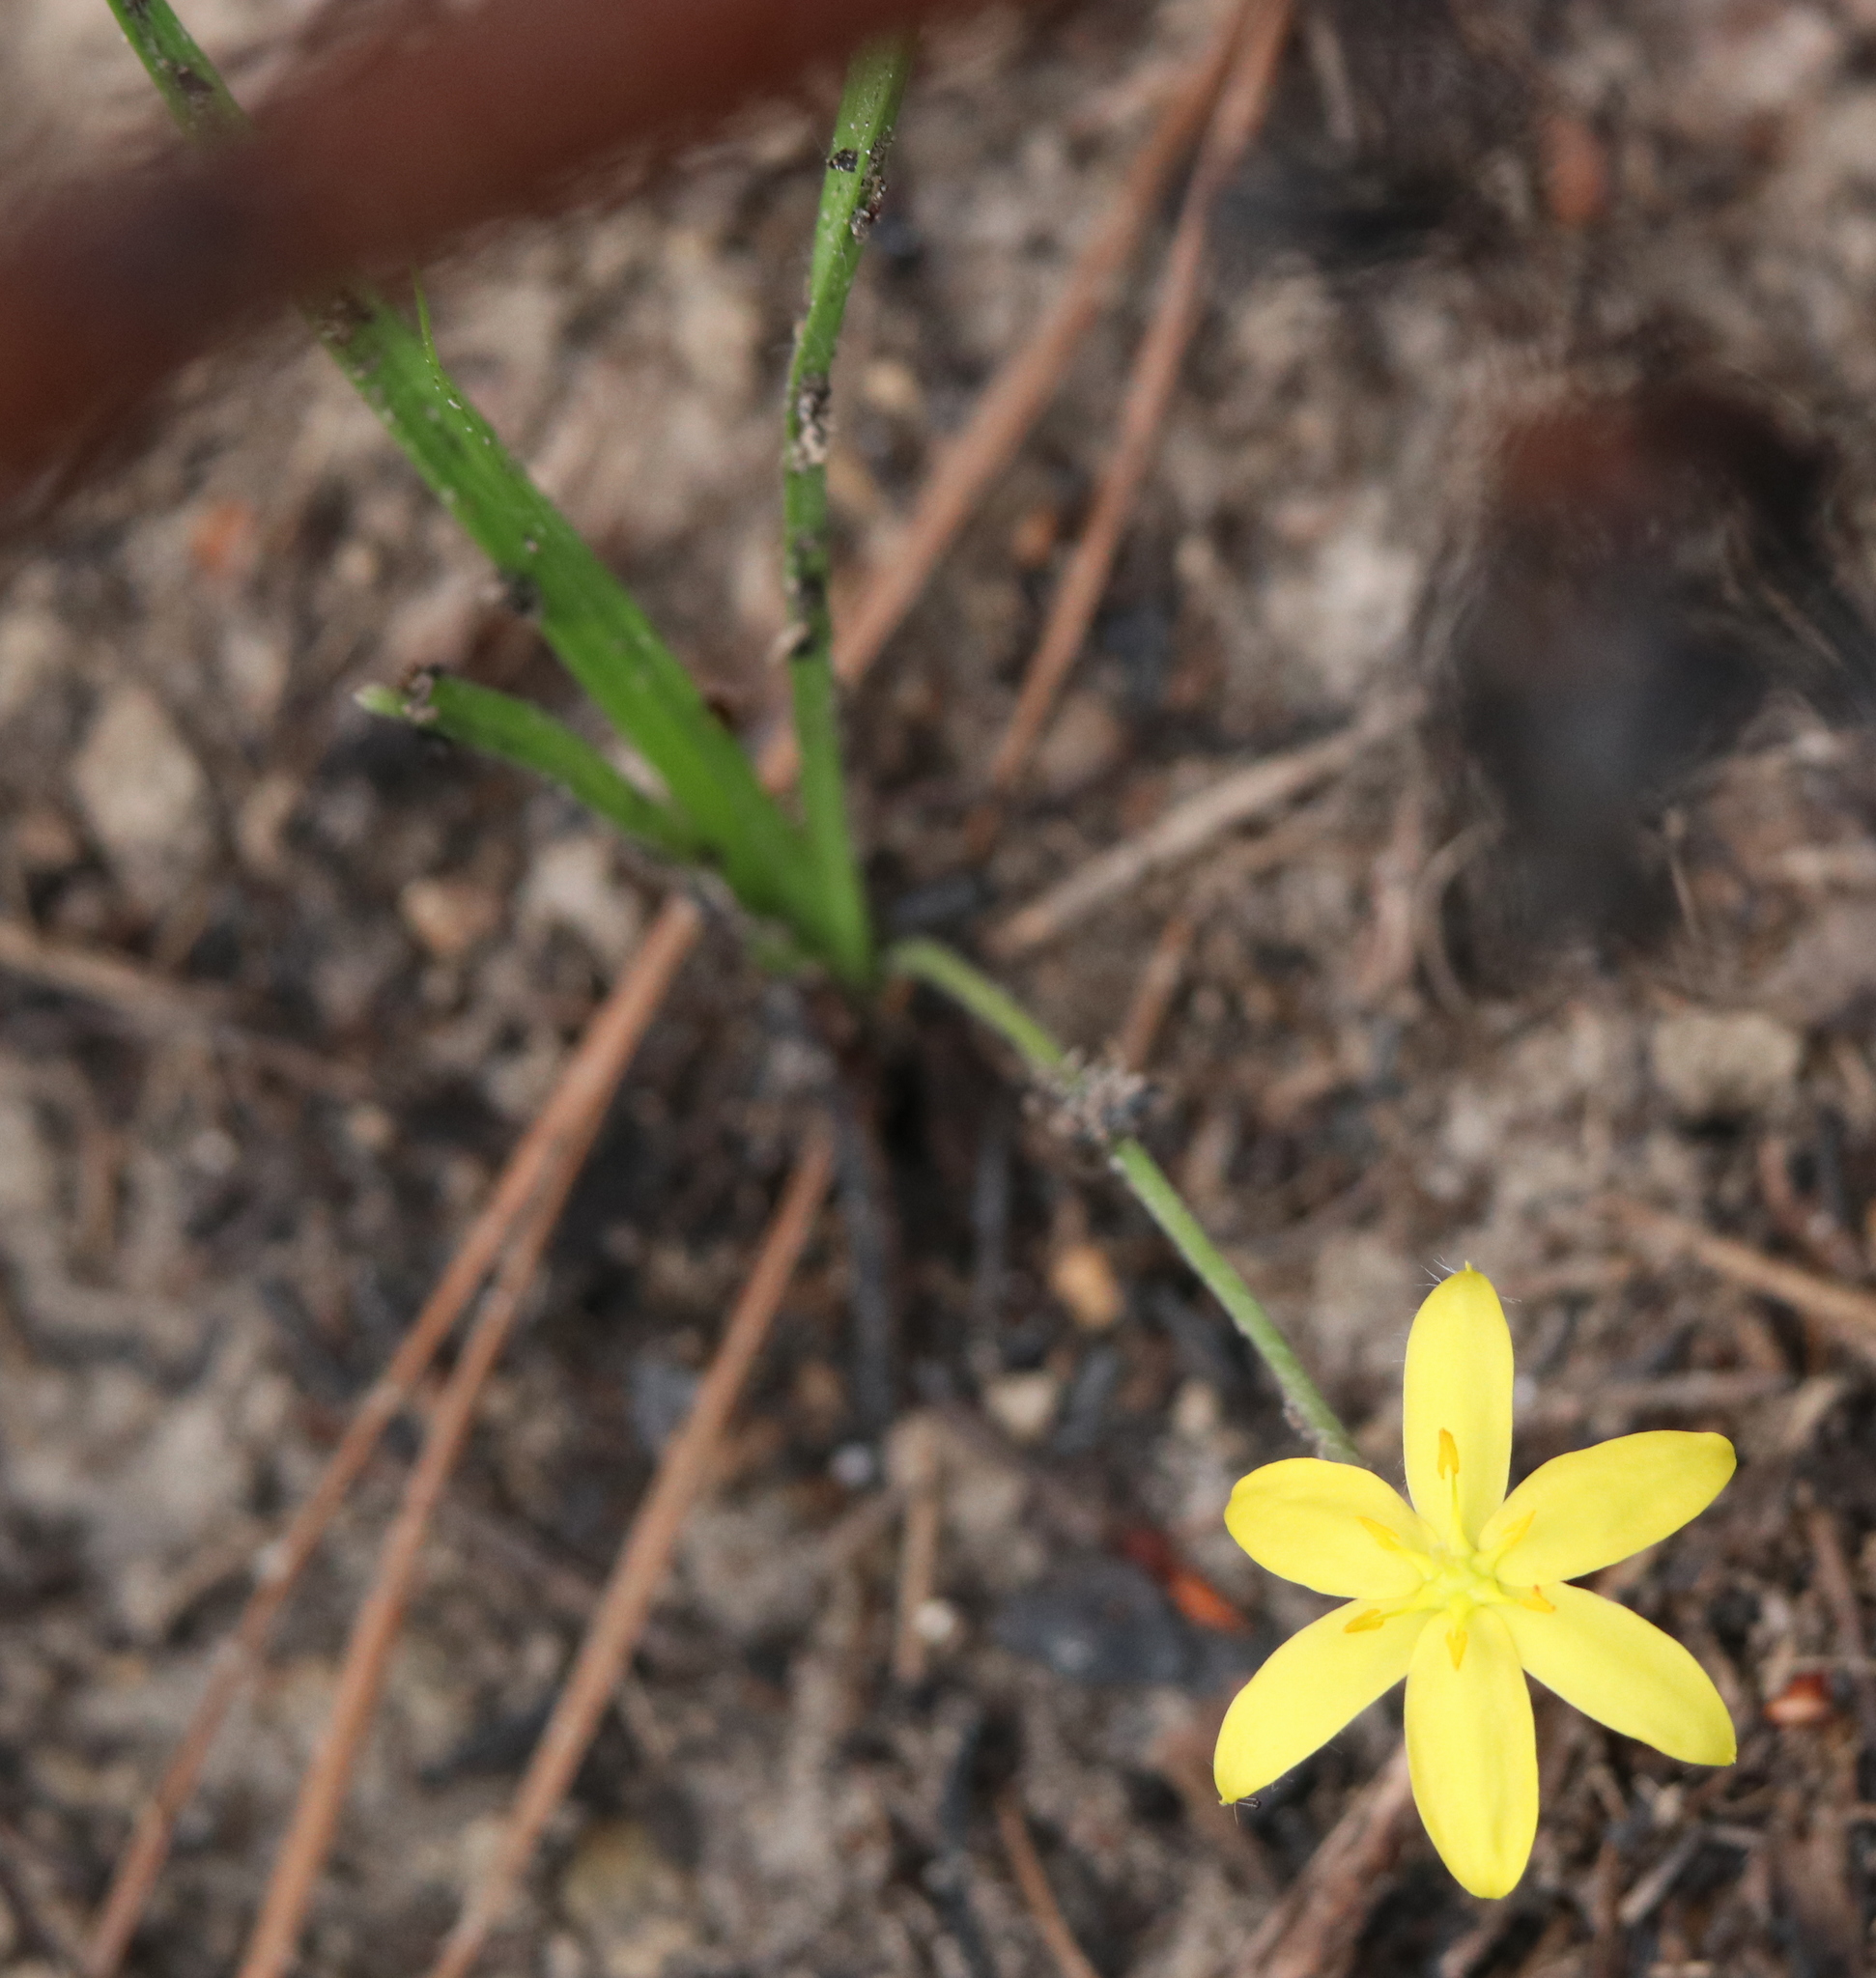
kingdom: Plantae
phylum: Tracheophyta
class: Liliopsida
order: Asparagales
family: Hypoxidaceae
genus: Hypoxis
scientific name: Hypoxis hirsuta
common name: Common goldstar
